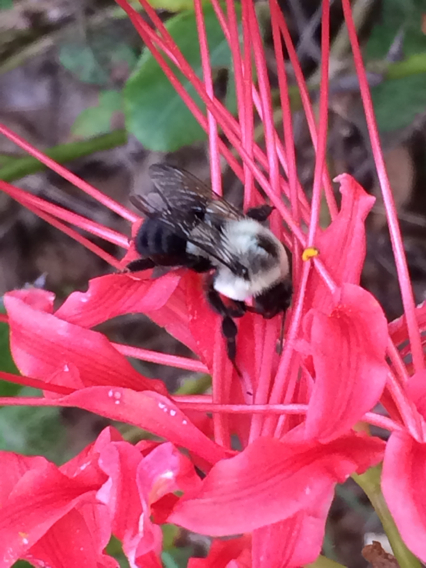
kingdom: Animalia
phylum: Arthropoda
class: Insecta
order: Hymenoptera
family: Apidae
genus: Bombus
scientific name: Bombus impatiens
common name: Common eastern bumble bee
